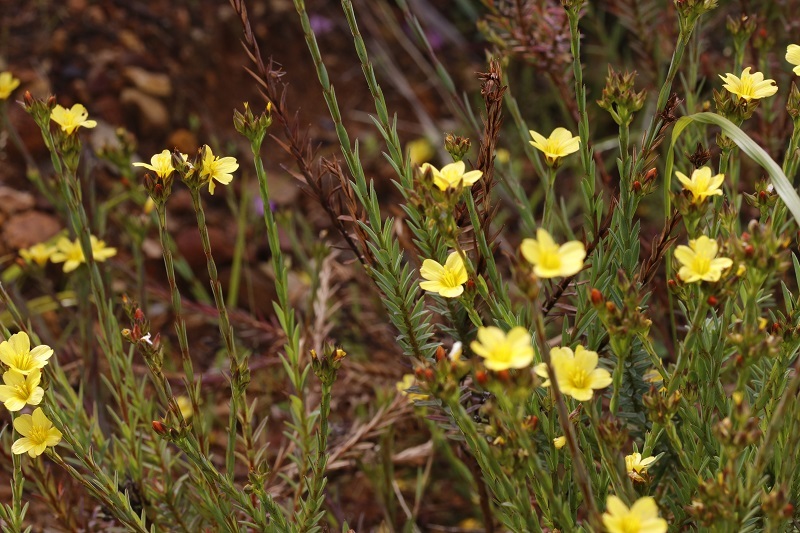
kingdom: Plantae
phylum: Tracheophyta
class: Magnoliopsida
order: Malpighiales
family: Linaceae
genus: Linum
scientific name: Linum africanum
